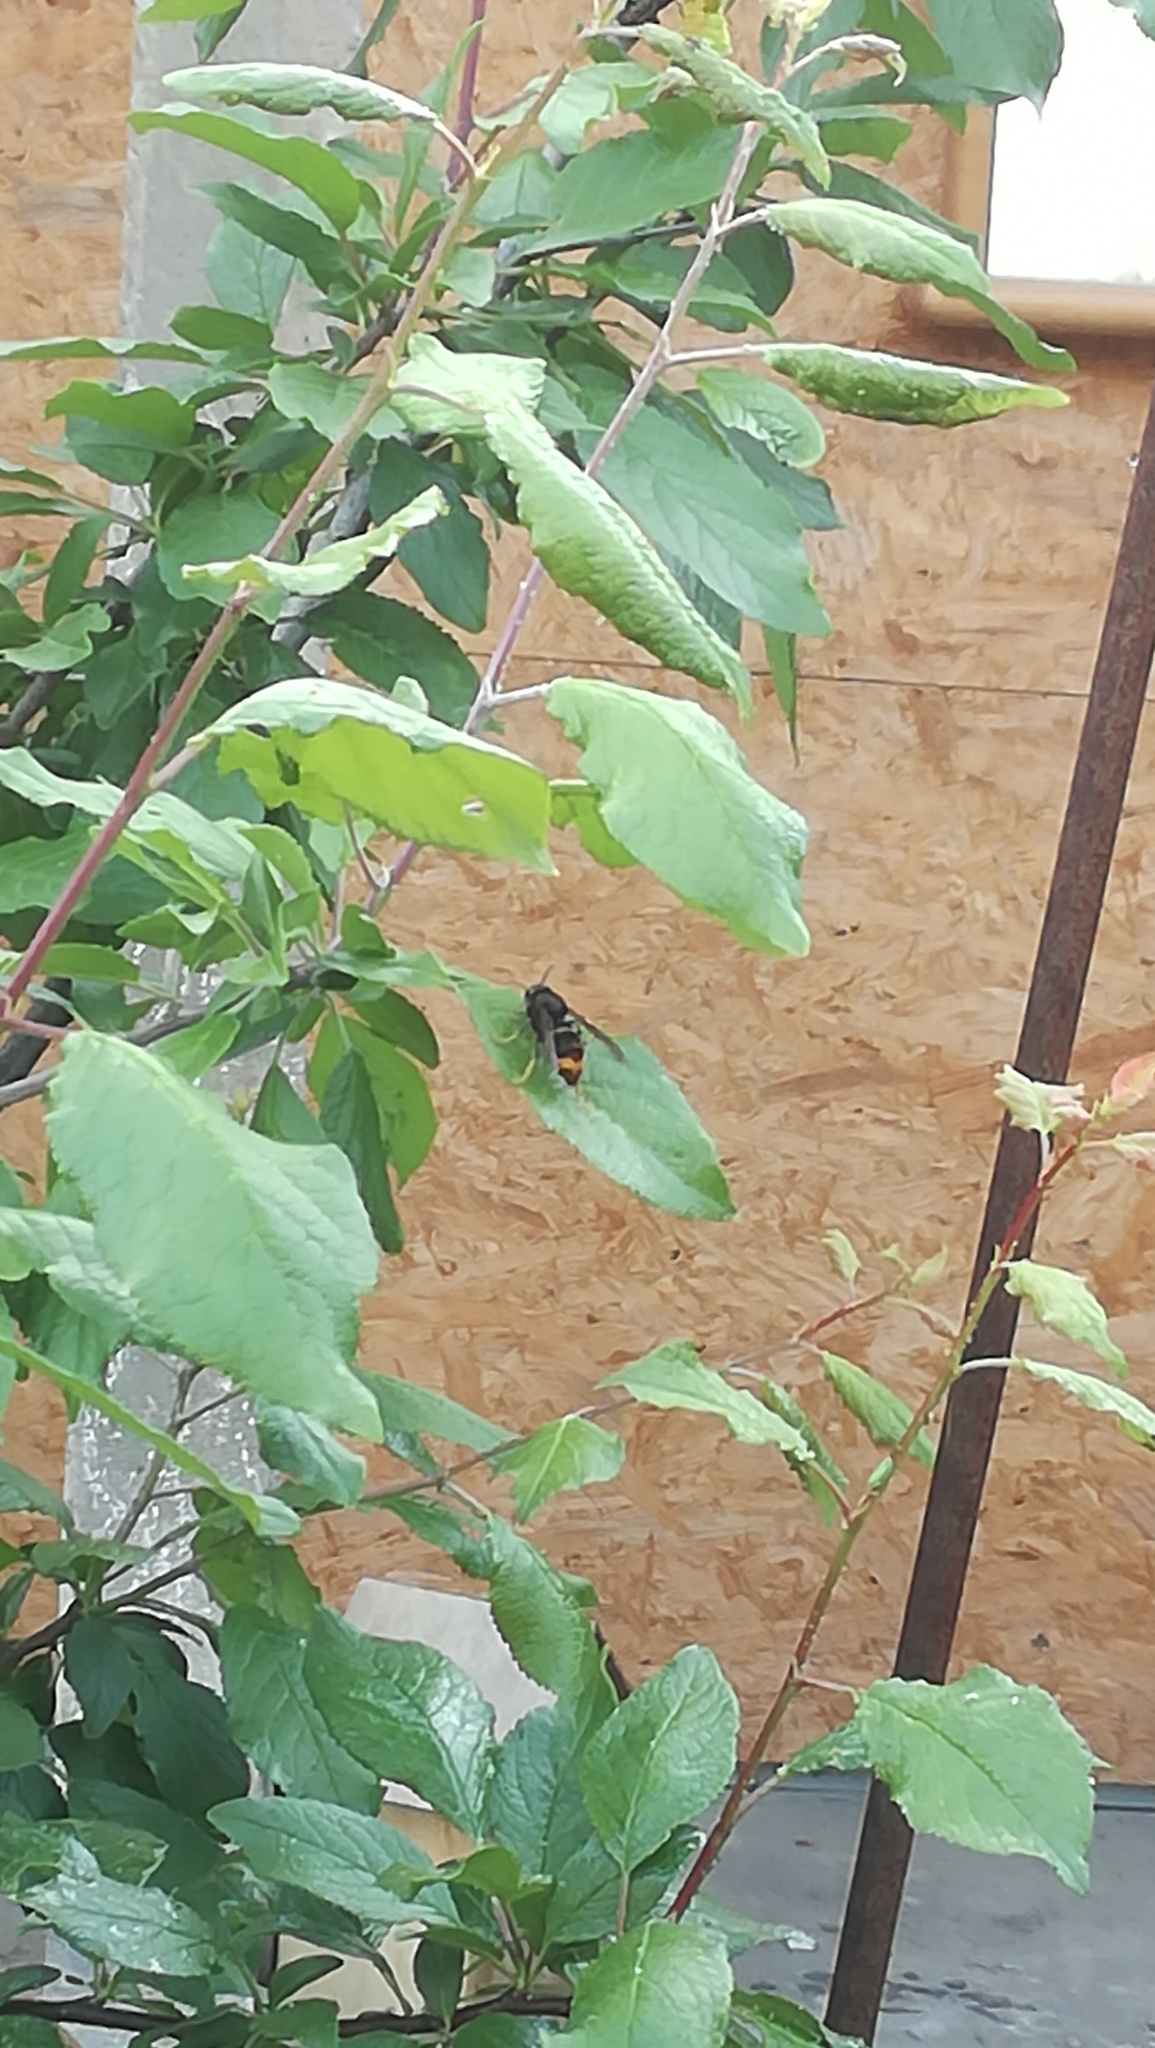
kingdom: Animalia
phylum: Arthropoda
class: Insecta
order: Hymenoptera
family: Vespidae
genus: Vespa
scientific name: Vespa velutina
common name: Asian hornet
